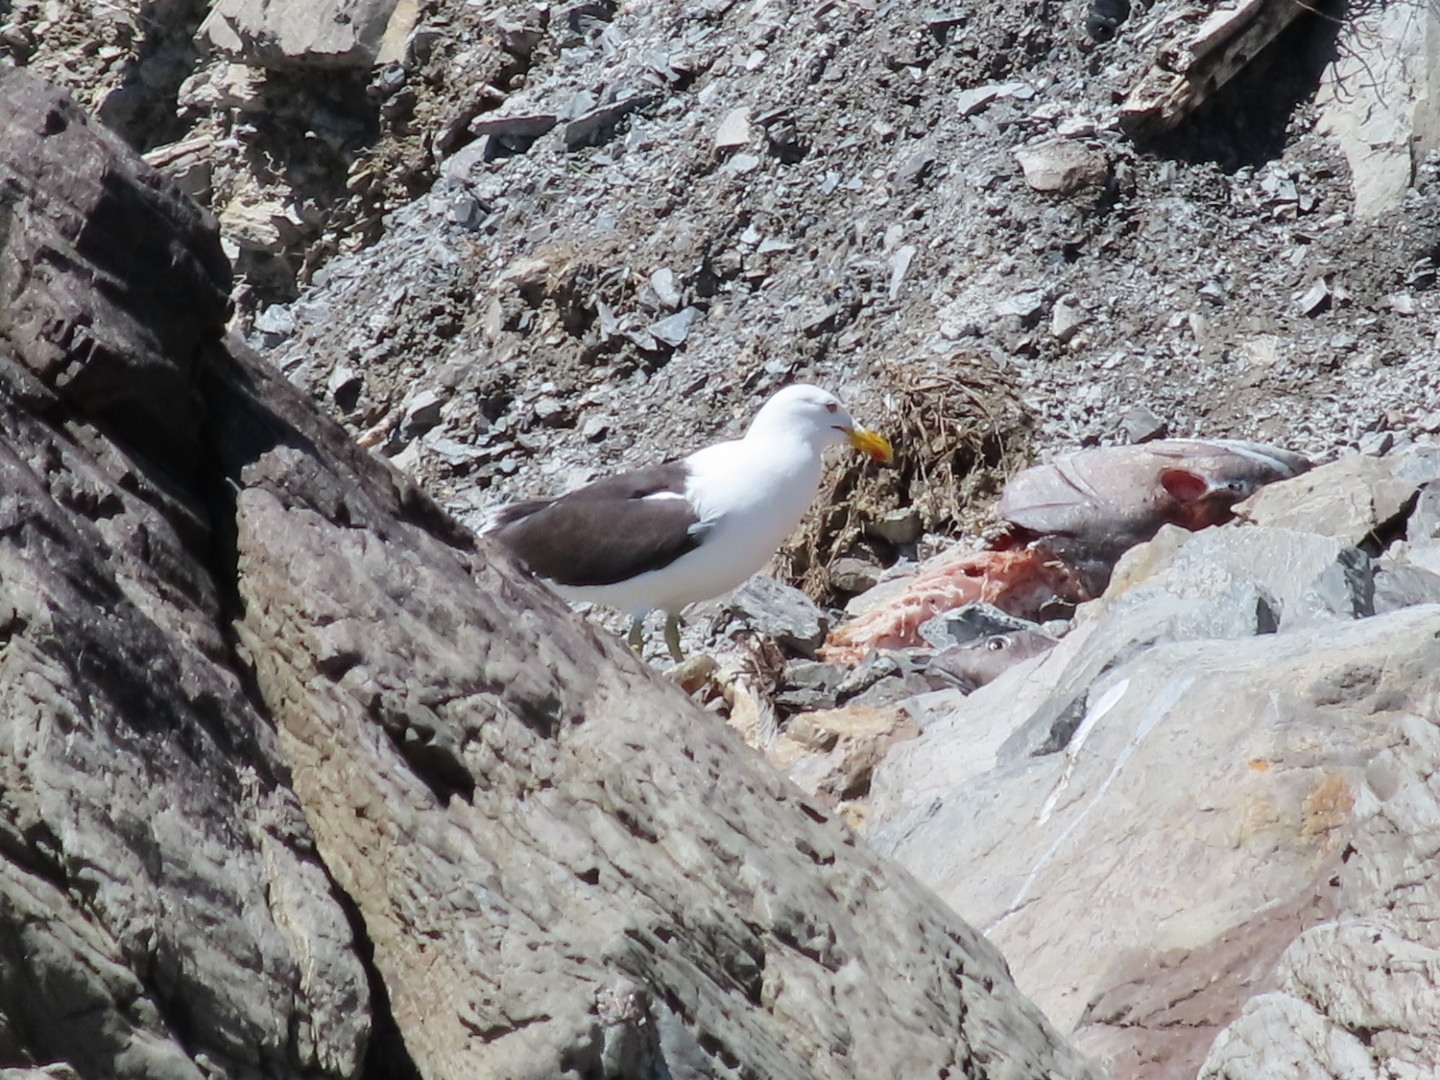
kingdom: Animalia
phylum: Chordata
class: Aves
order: Charadriiformes
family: Laridae
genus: Larus
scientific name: Larus dominicanus
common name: Kelp gull
